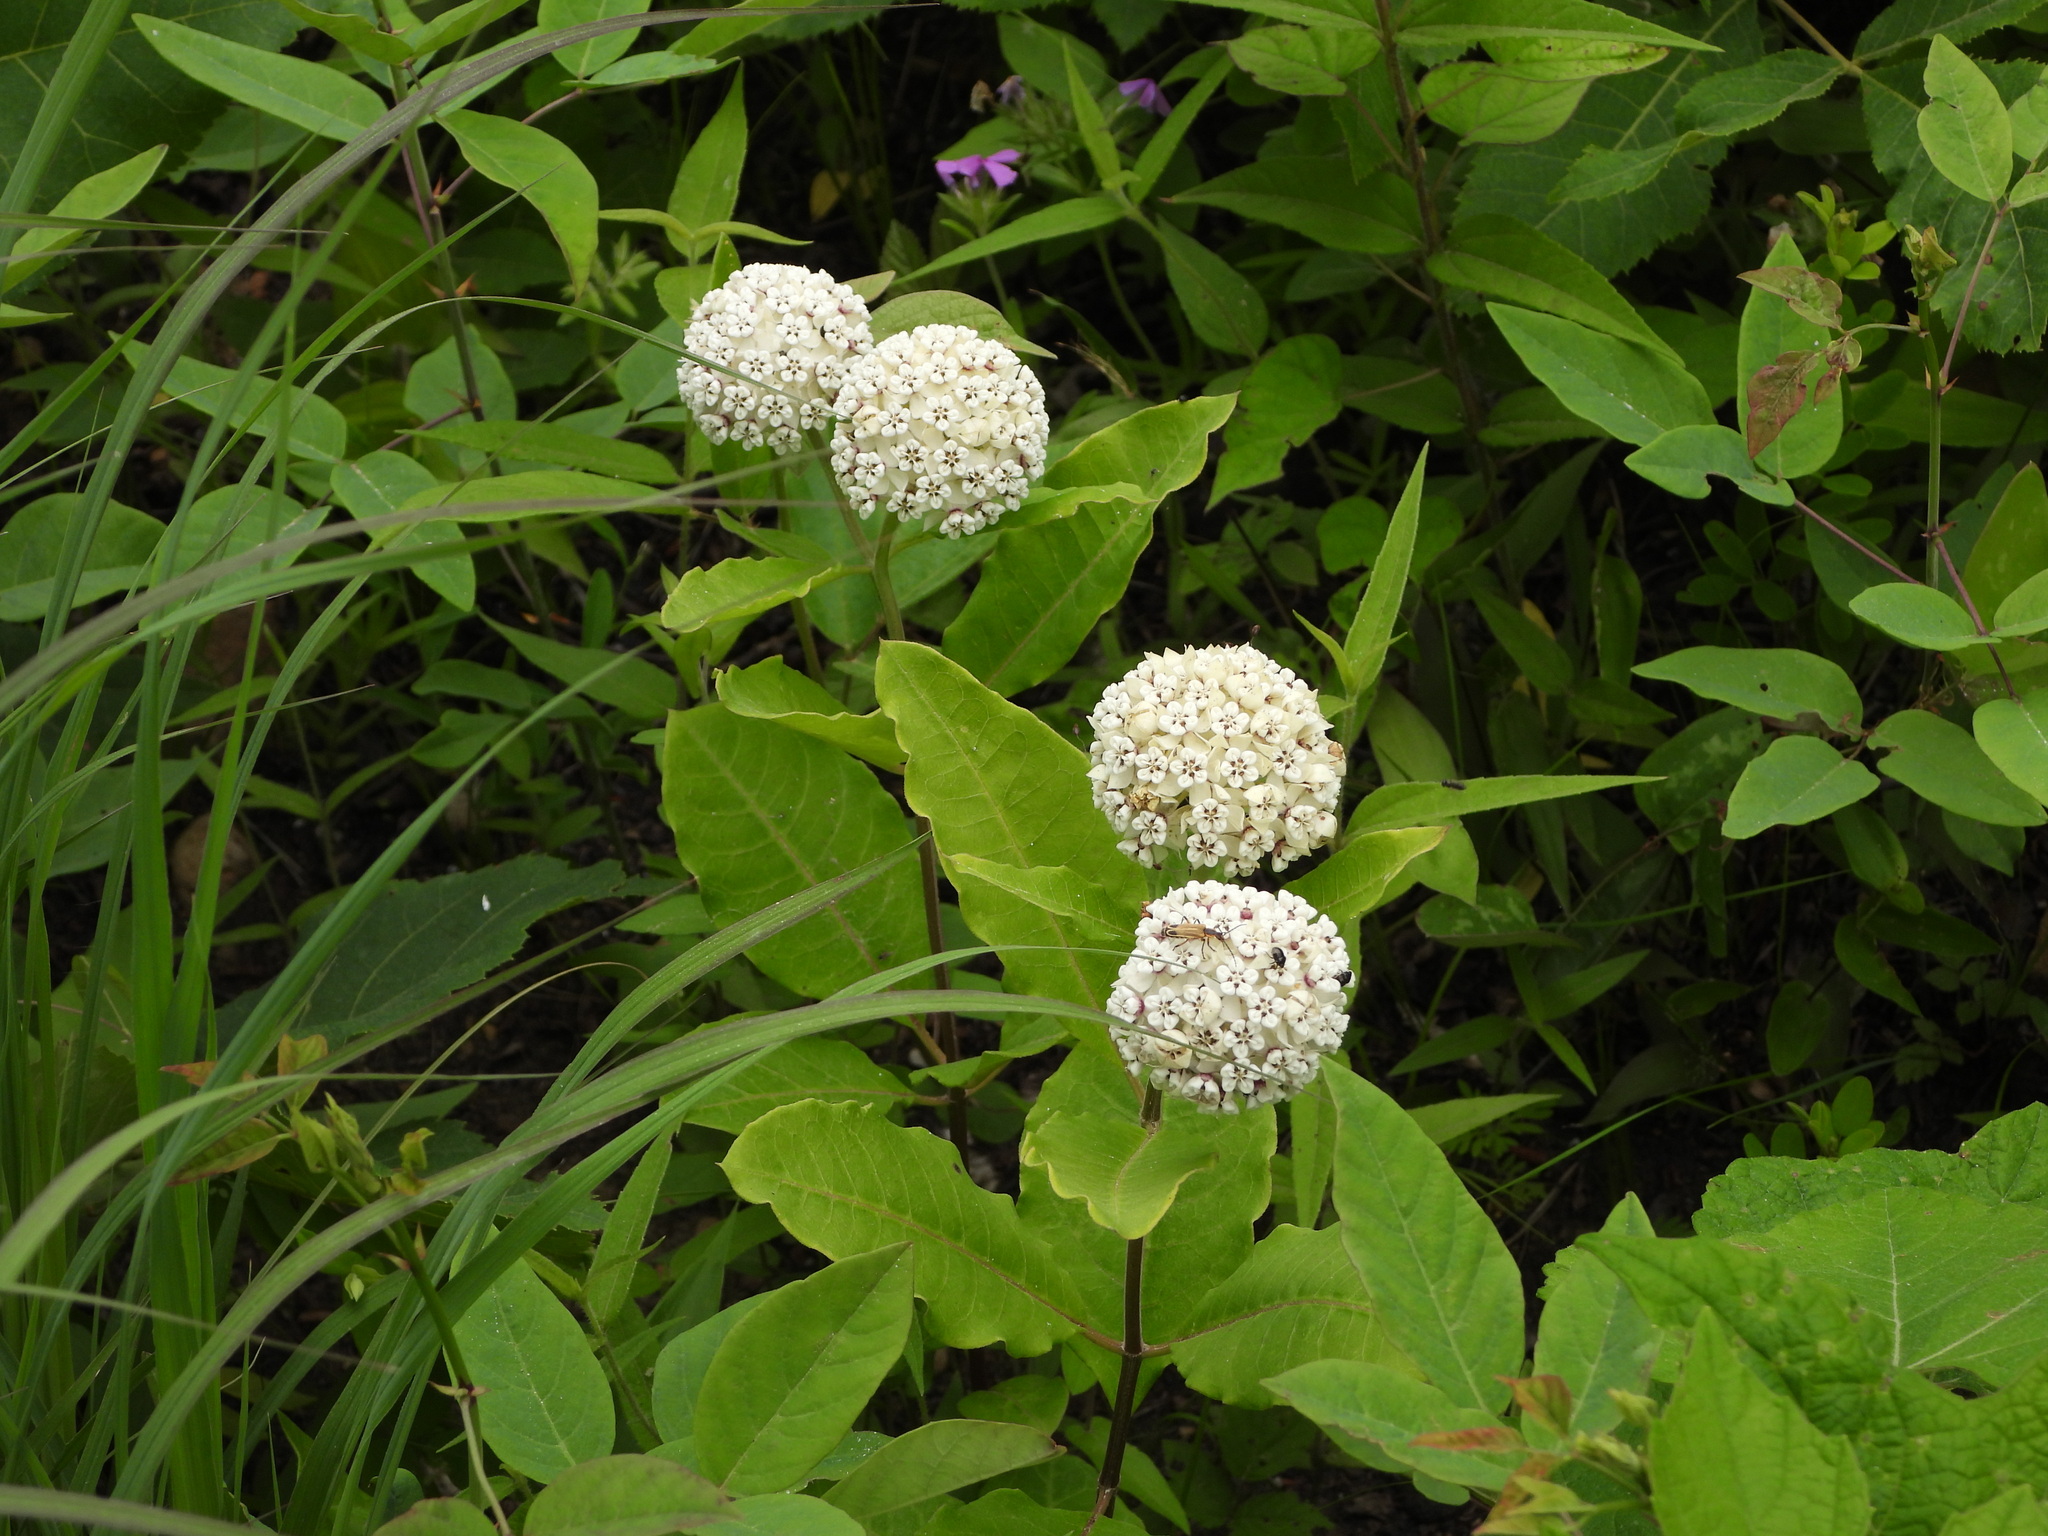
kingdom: Plantae
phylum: Tracheophyta
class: Magnoliopsida
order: Gentianales
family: Apocynaceae
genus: Asclepias
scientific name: Asclepias variegata
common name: Variegated milkweed
